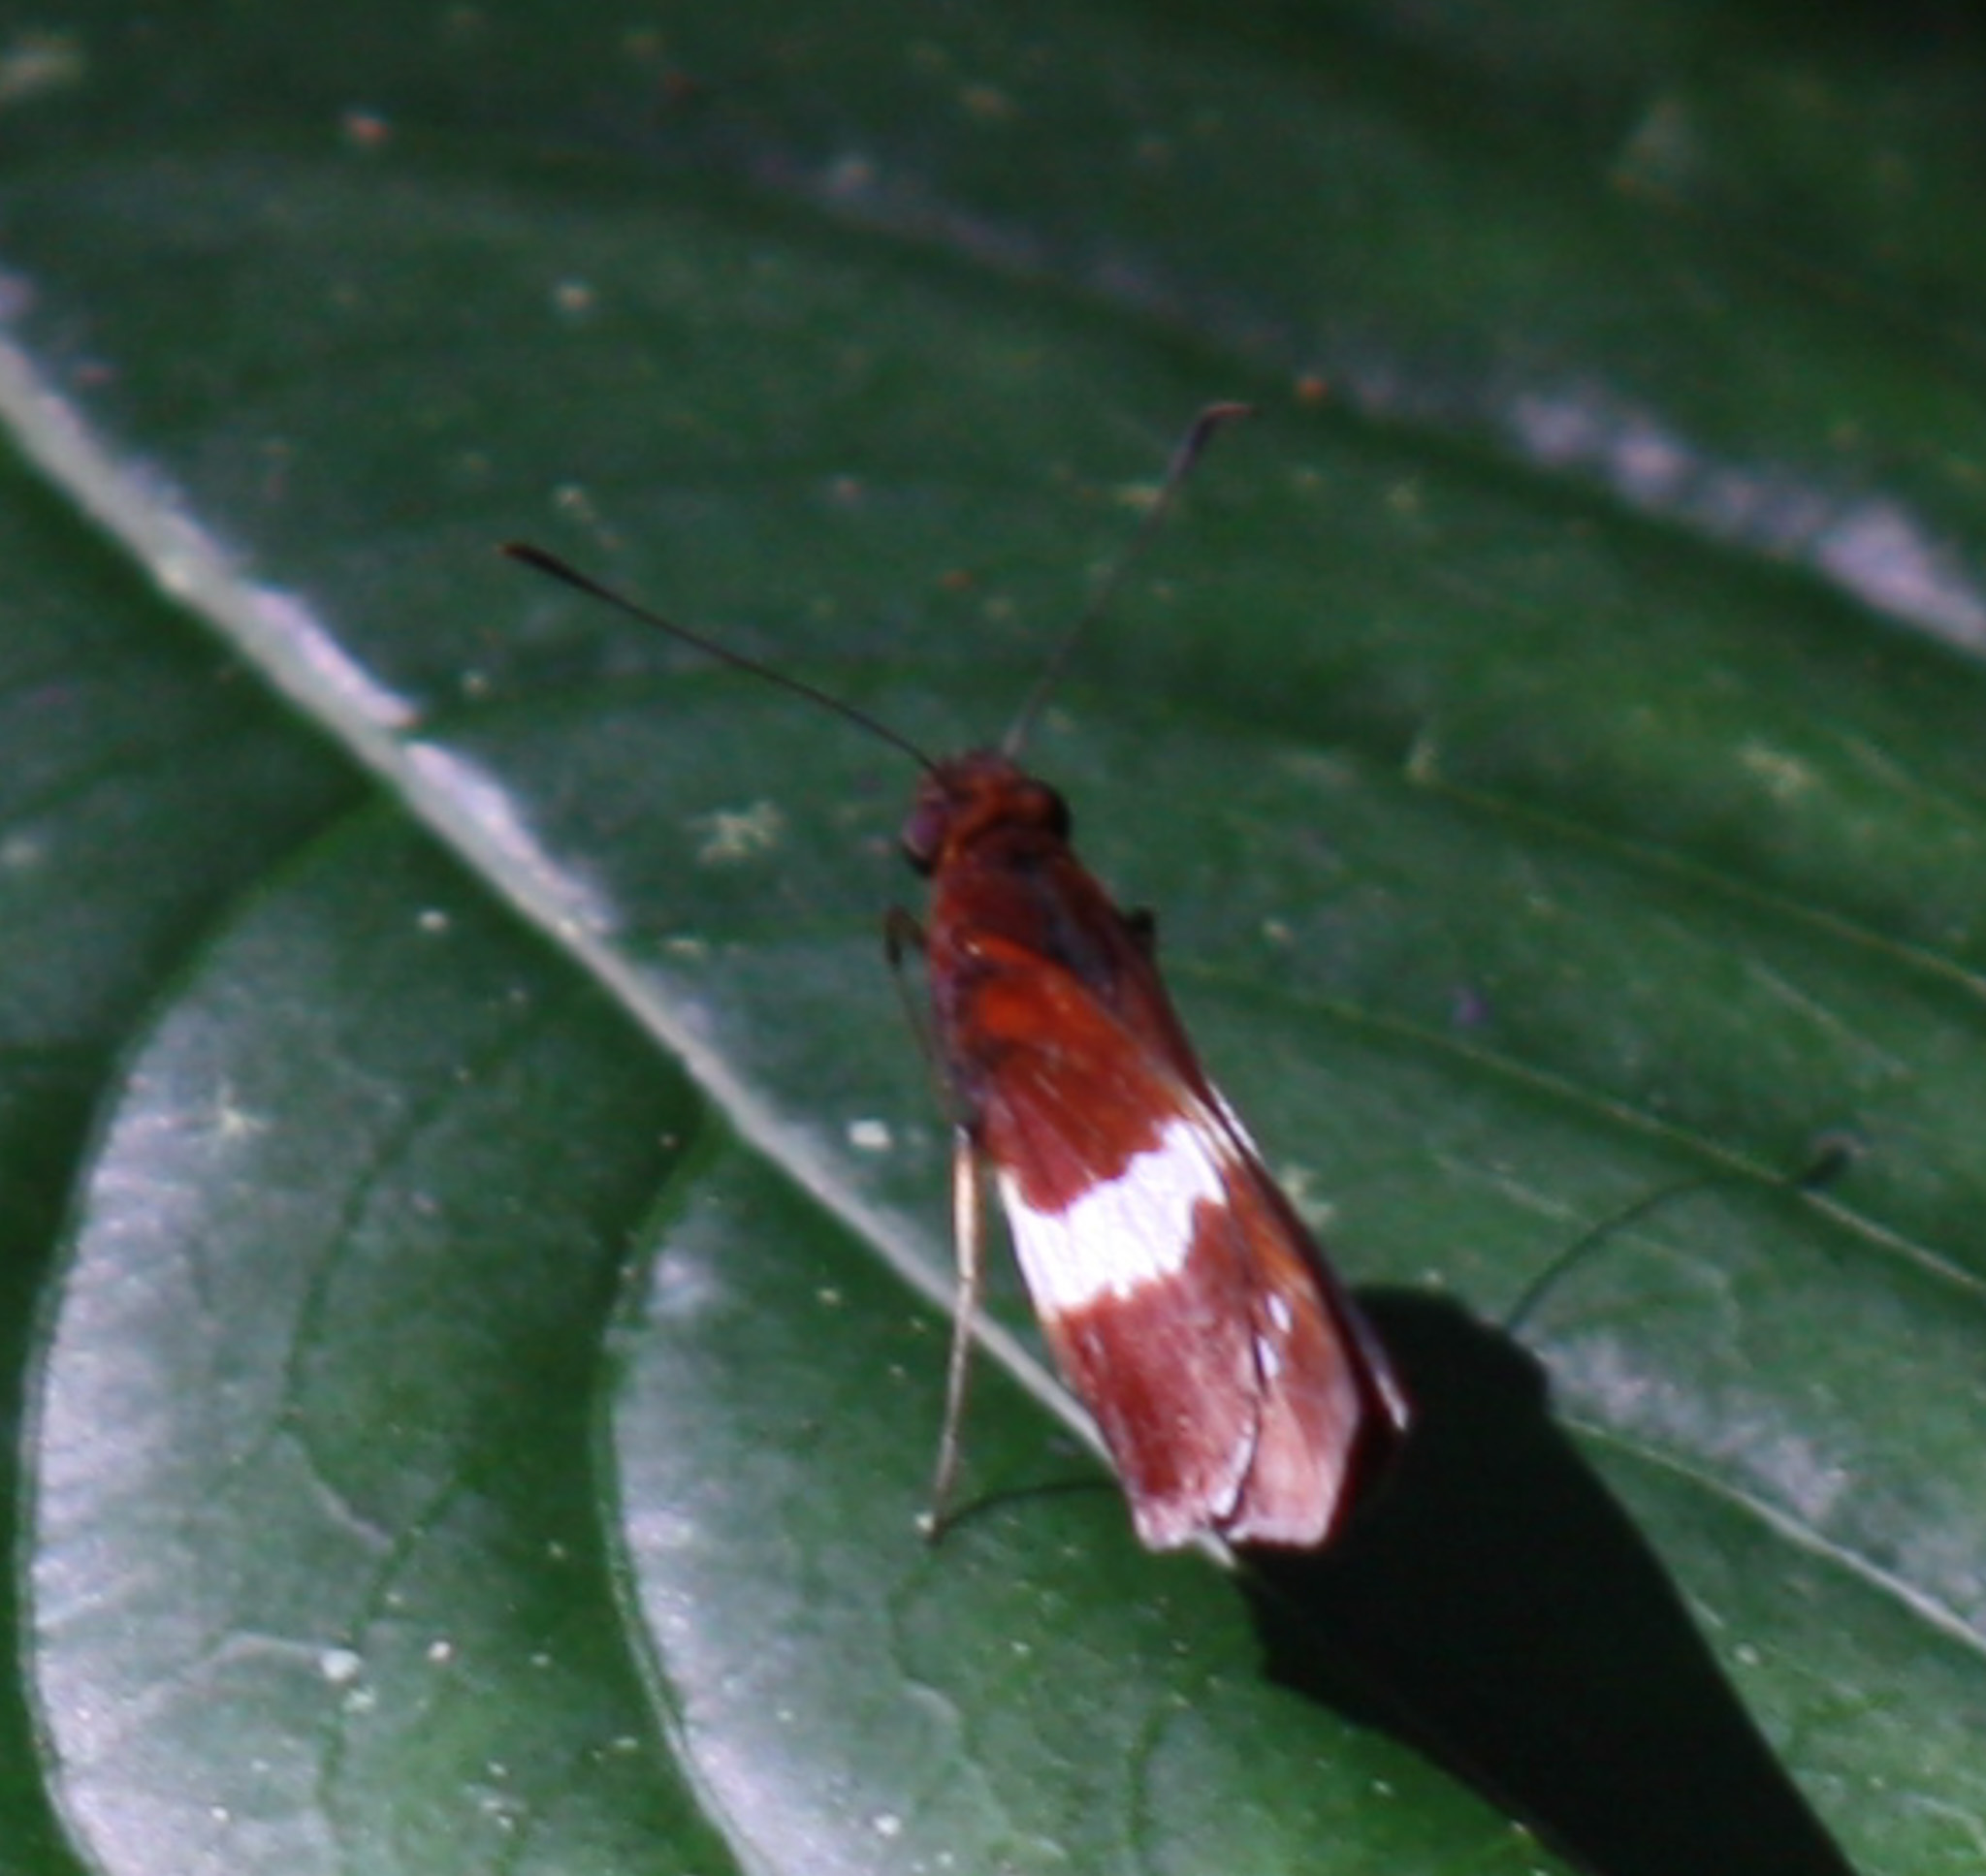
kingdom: Animalia
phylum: Arthropoda
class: Insecta
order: Lepidoptera
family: Hesperiidae
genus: Dubiella
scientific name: Dubiella fiscella
